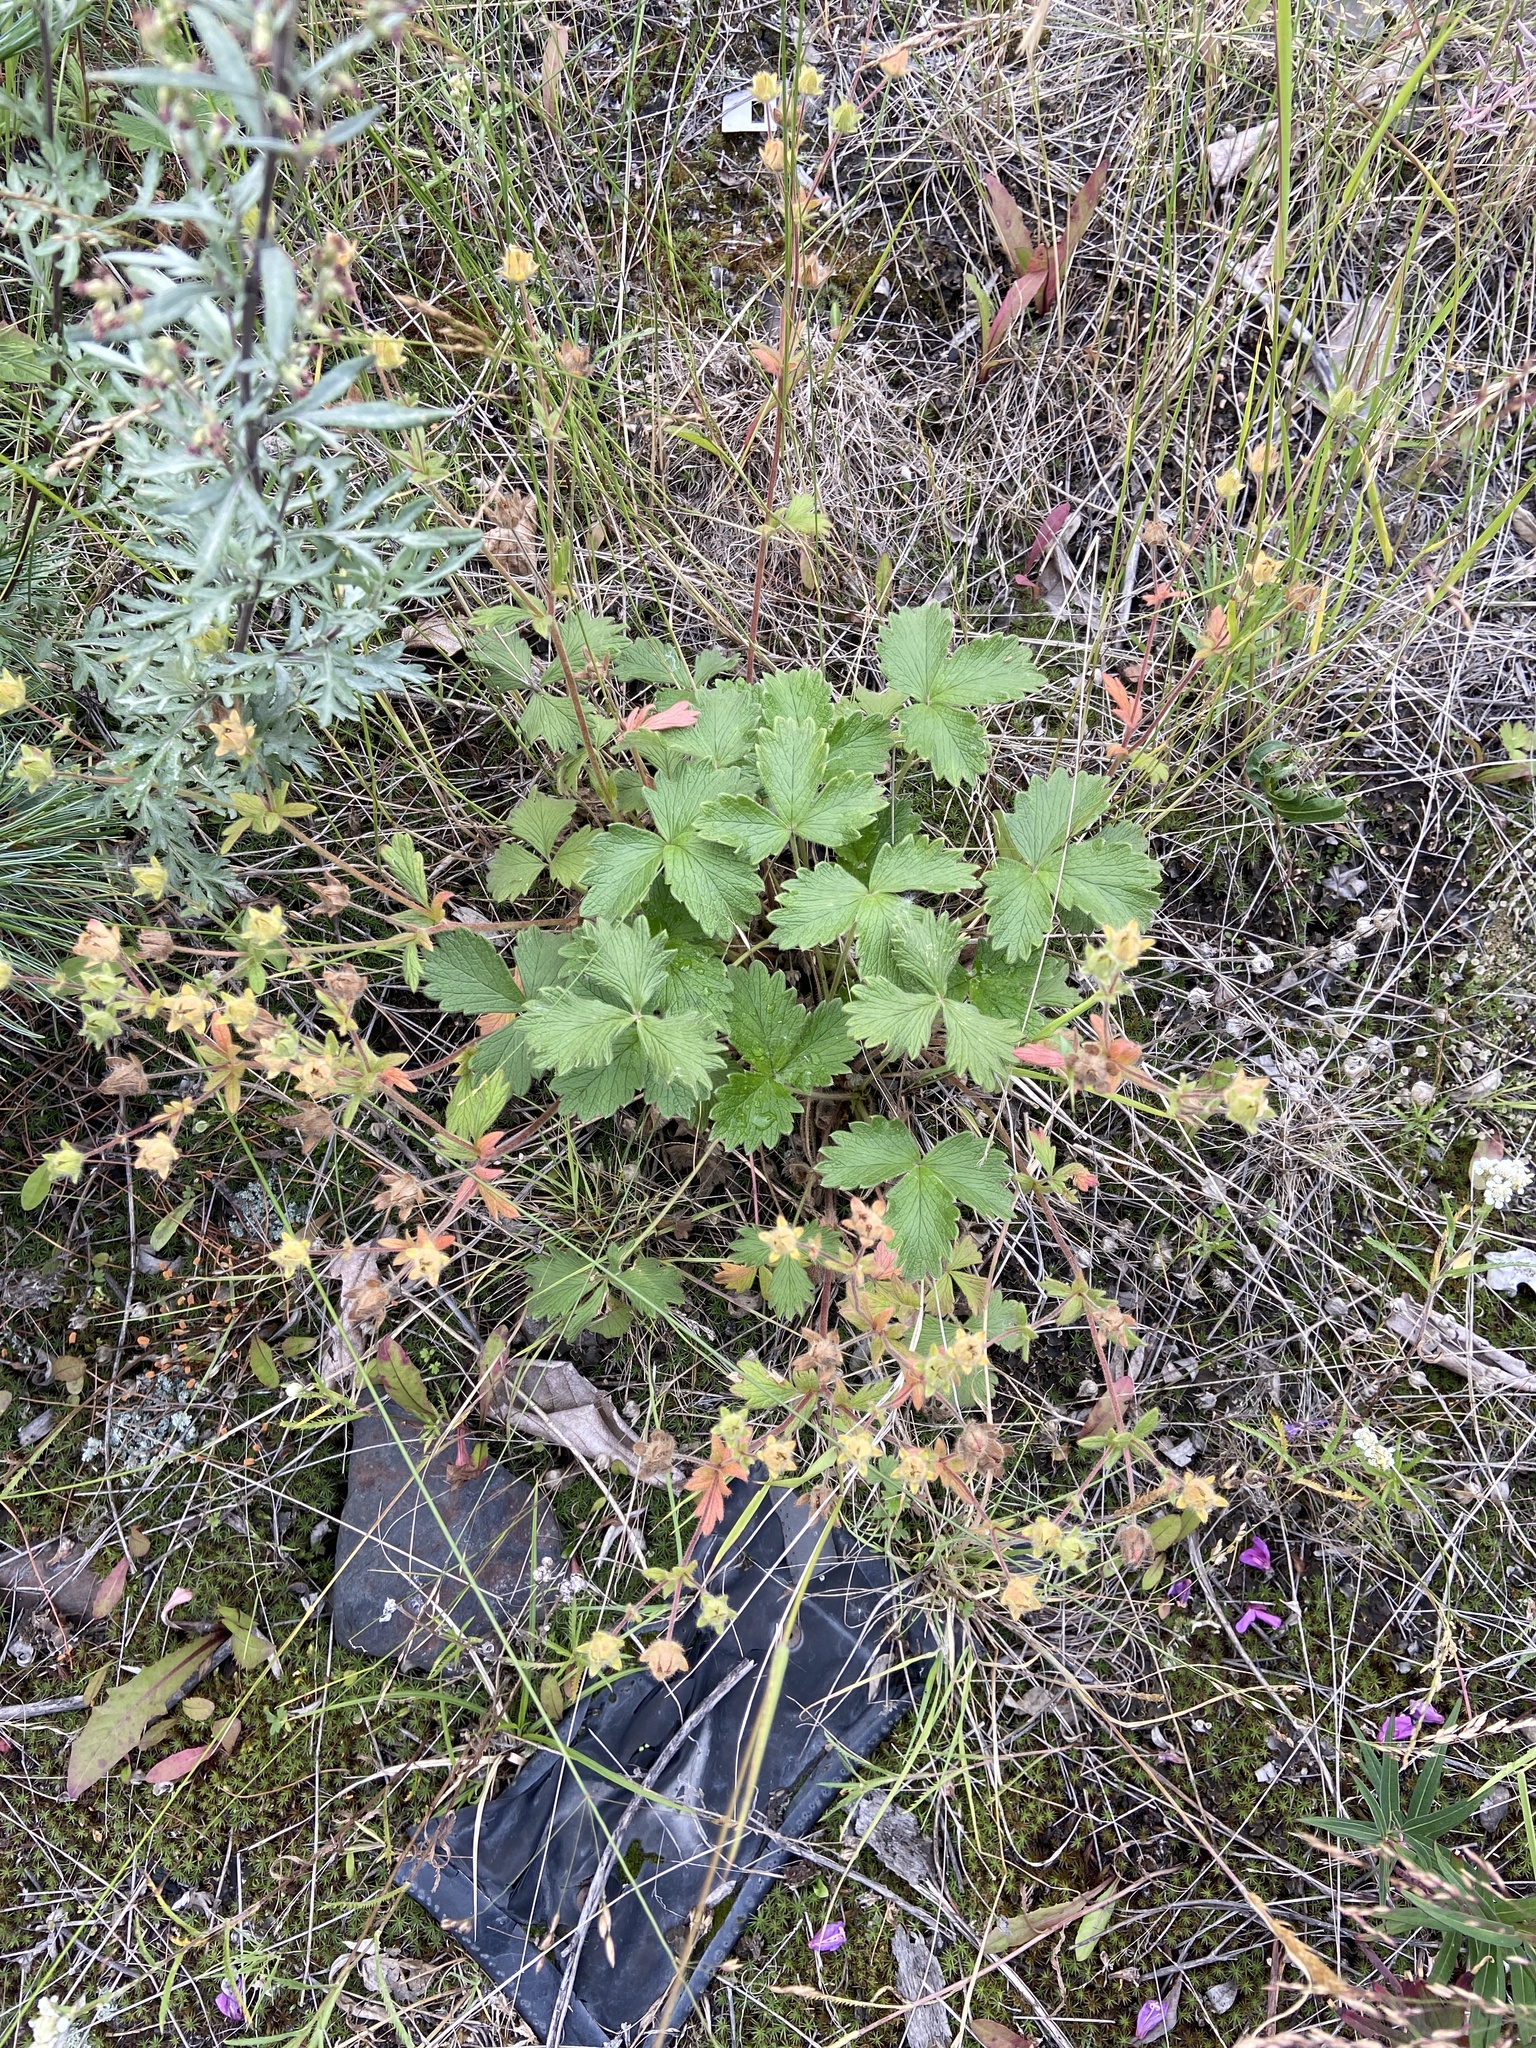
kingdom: Plantae
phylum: Tracheophyta
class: Magnoliopsida
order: Rosales
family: Rosaceae
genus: Potentilla
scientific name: Potentilla fragiformis
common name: Strawberry cinquefoil
